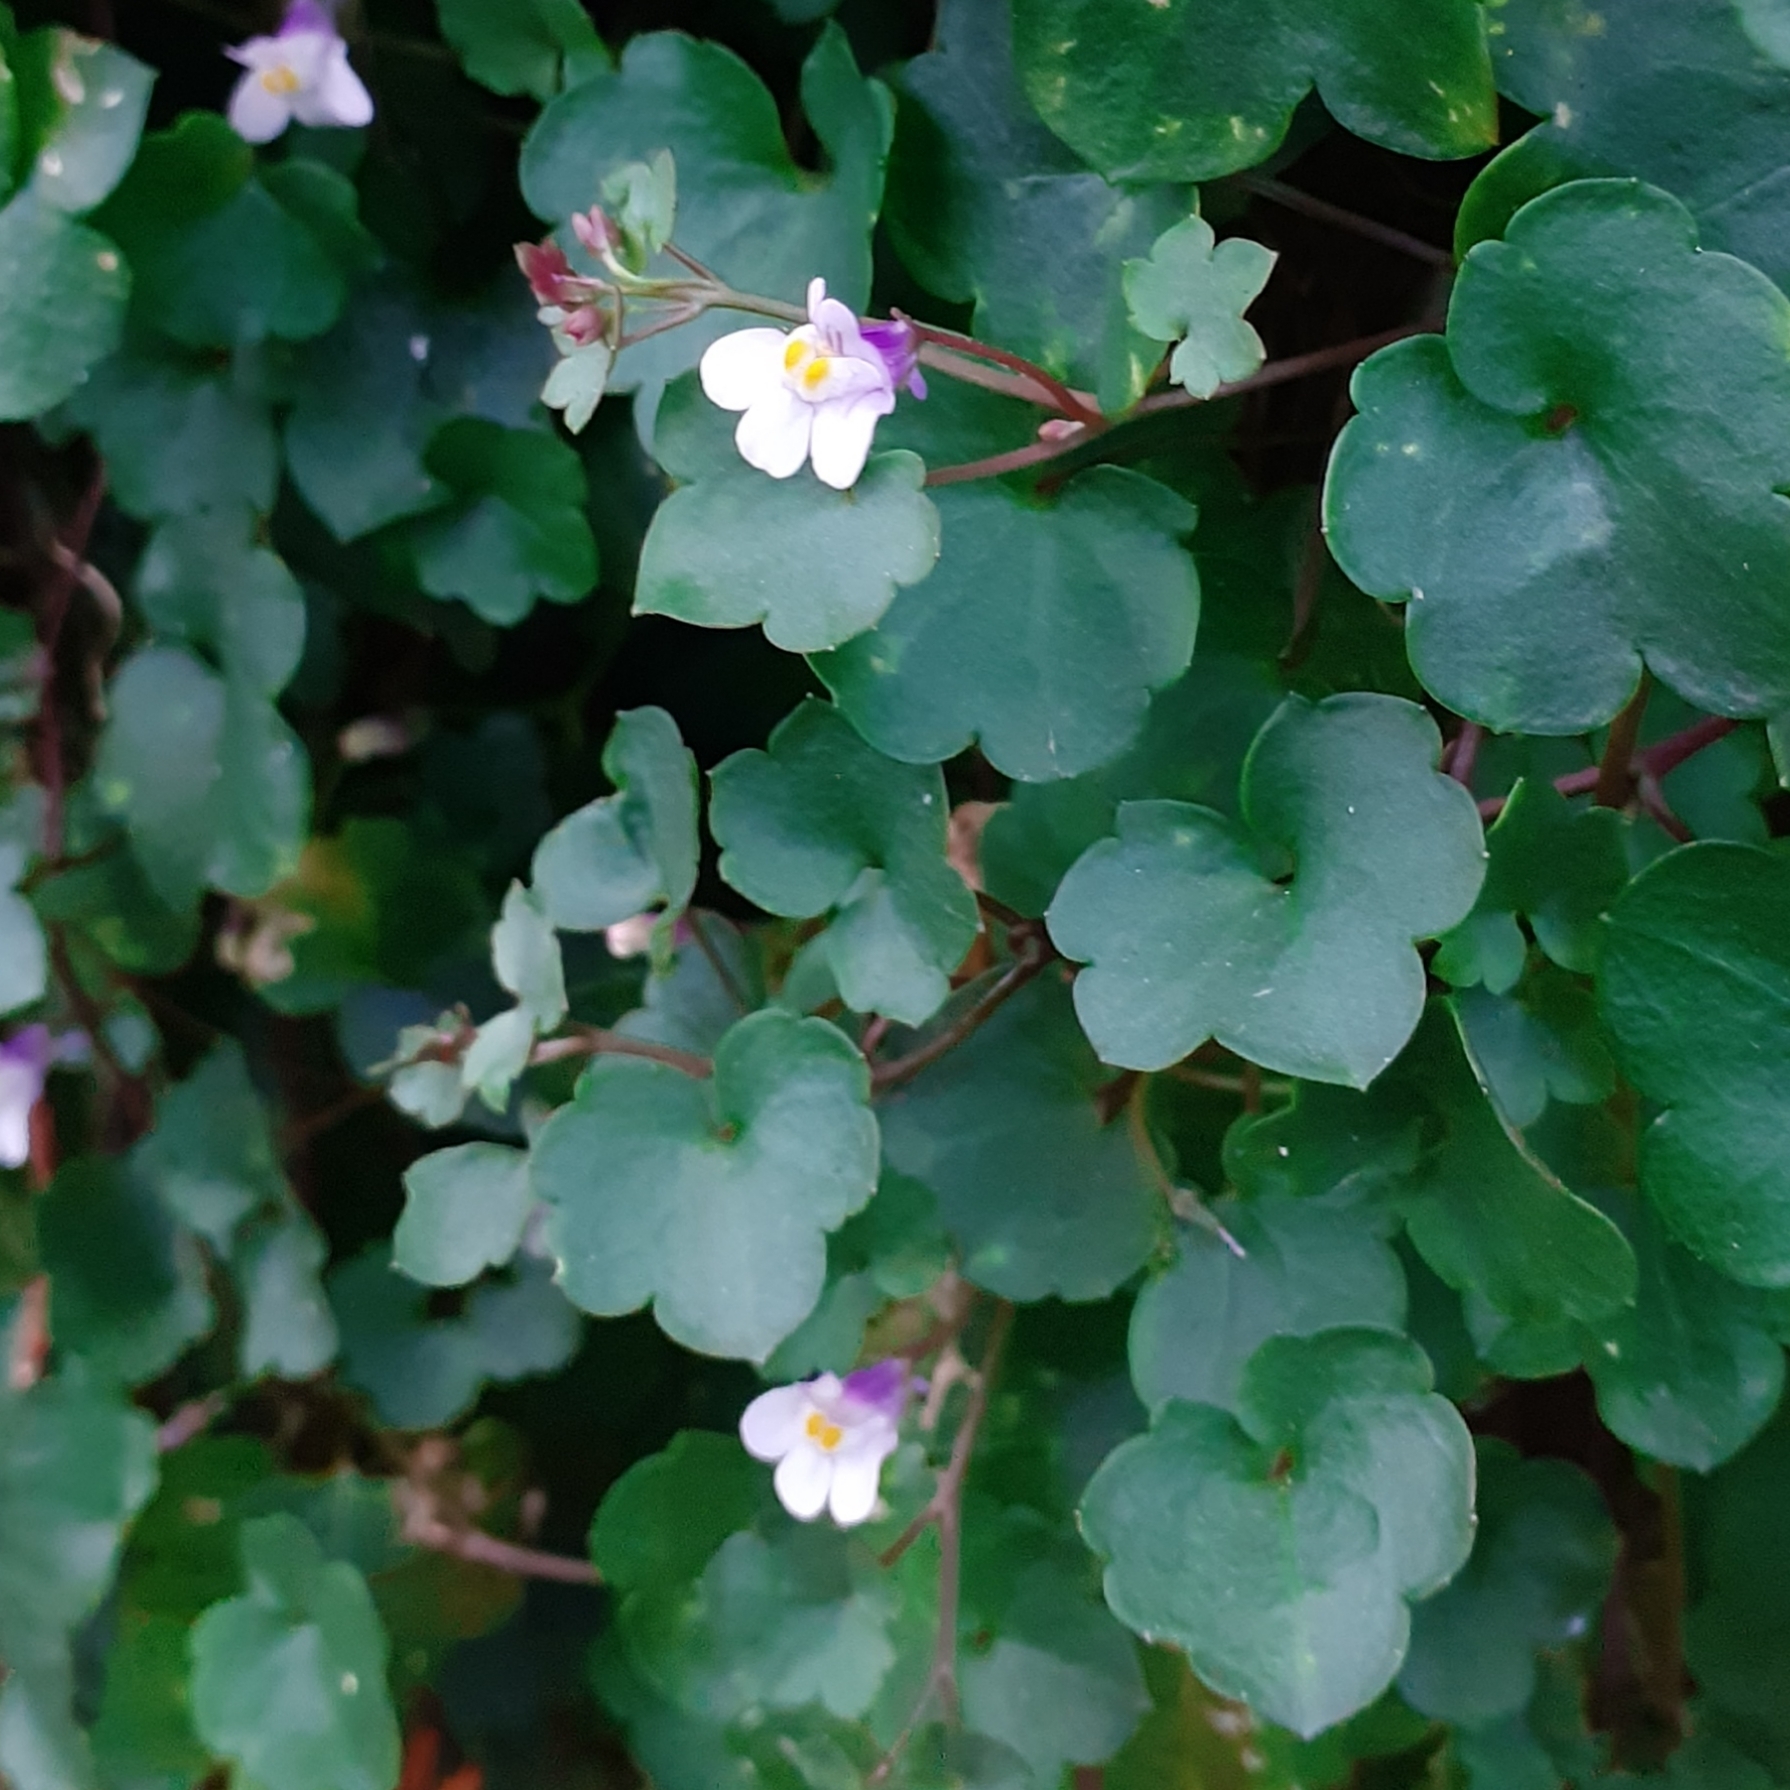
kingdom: Plantae
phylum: Tracheophyta
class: Magnoliopsida
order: Lamiales
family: Plantaginaceae
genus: Cymbalaria
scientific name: Cymbalaria muralis
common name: Ivy-leaved toadflax
